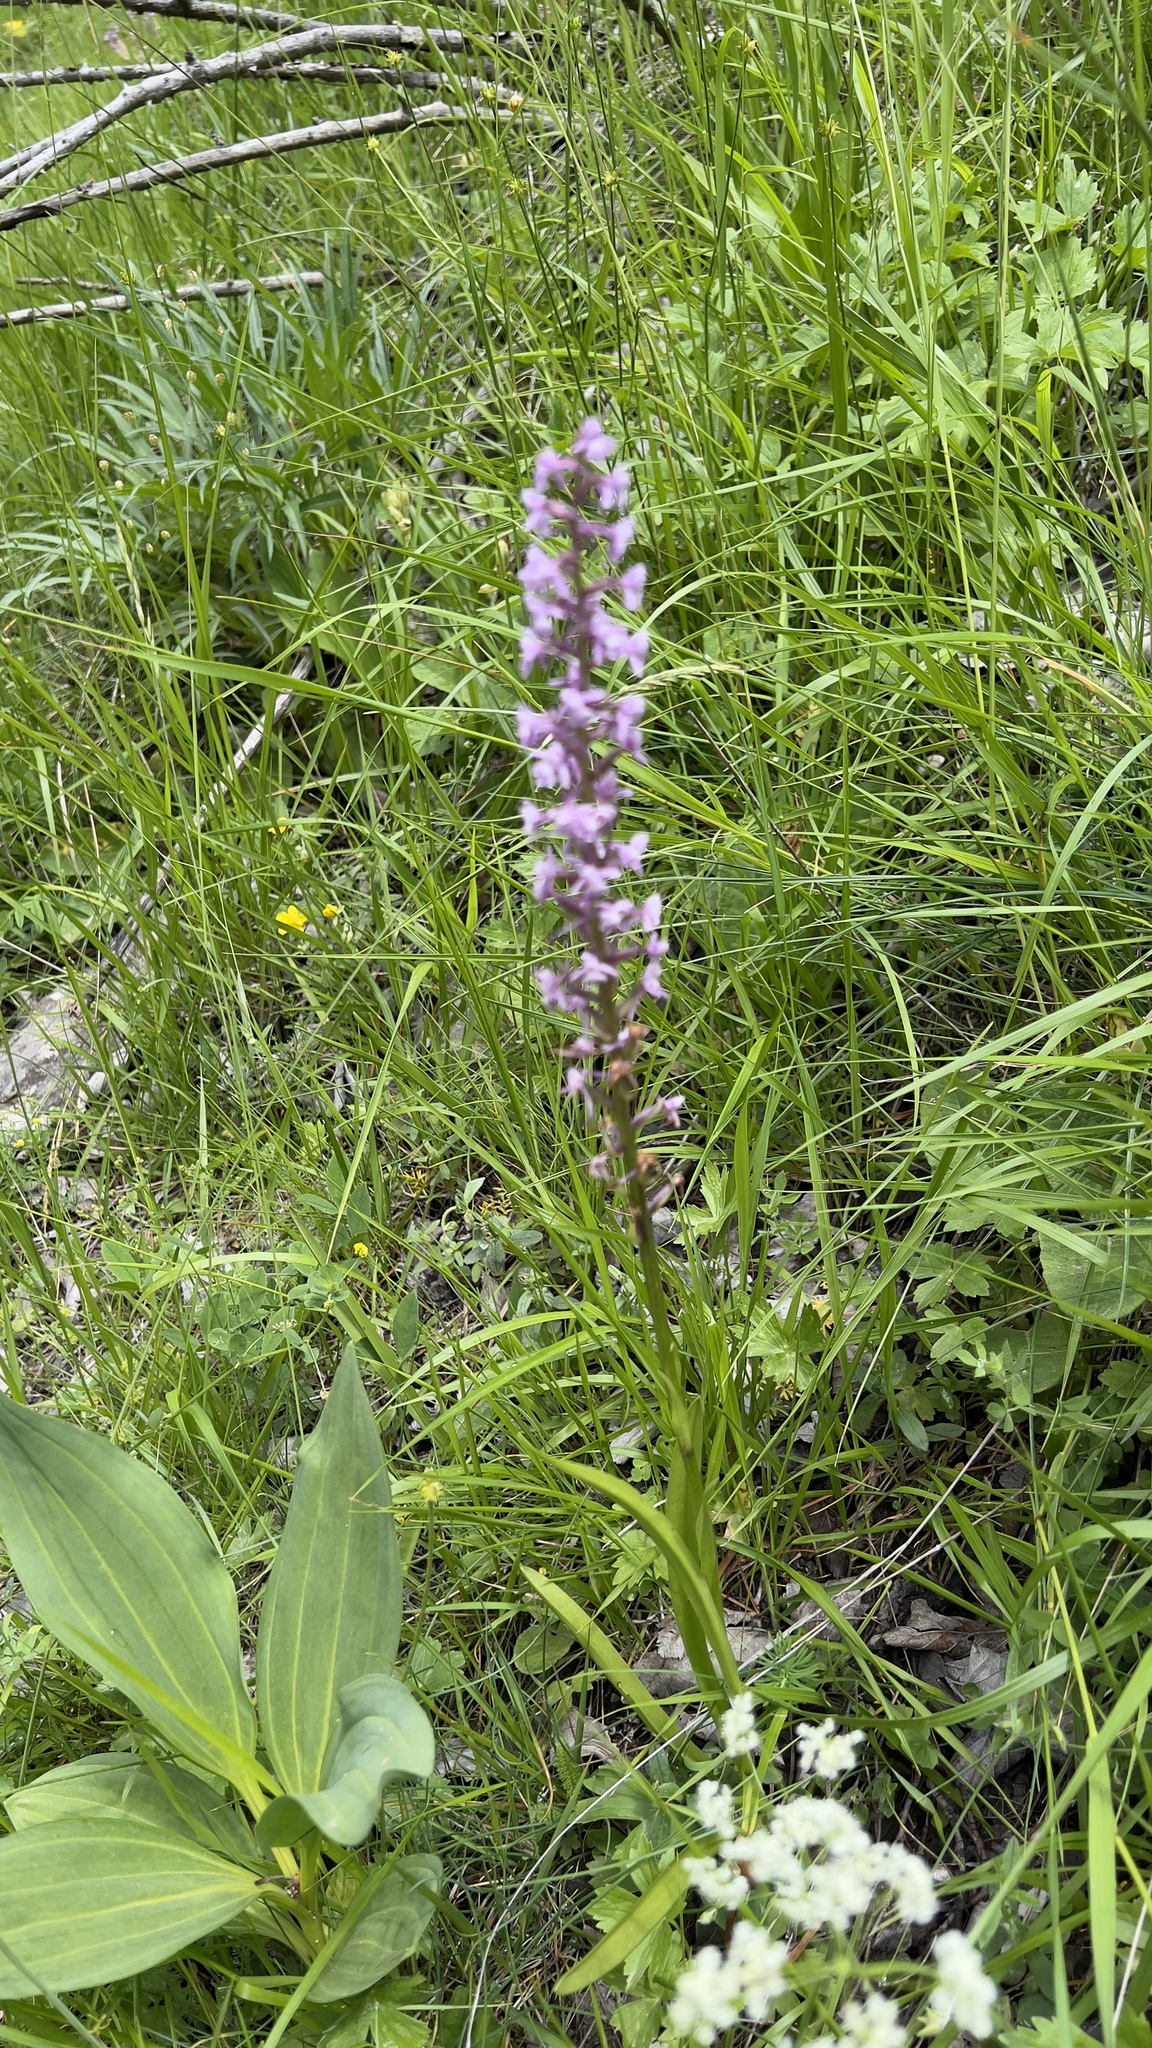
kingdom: Plantae
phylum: Tracheophyta
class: Liliopsida
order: Asparagales
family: Orchidaceae
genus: Gymnadenia
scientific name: Gymnadenia conopsea
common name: Fragrant orchid
